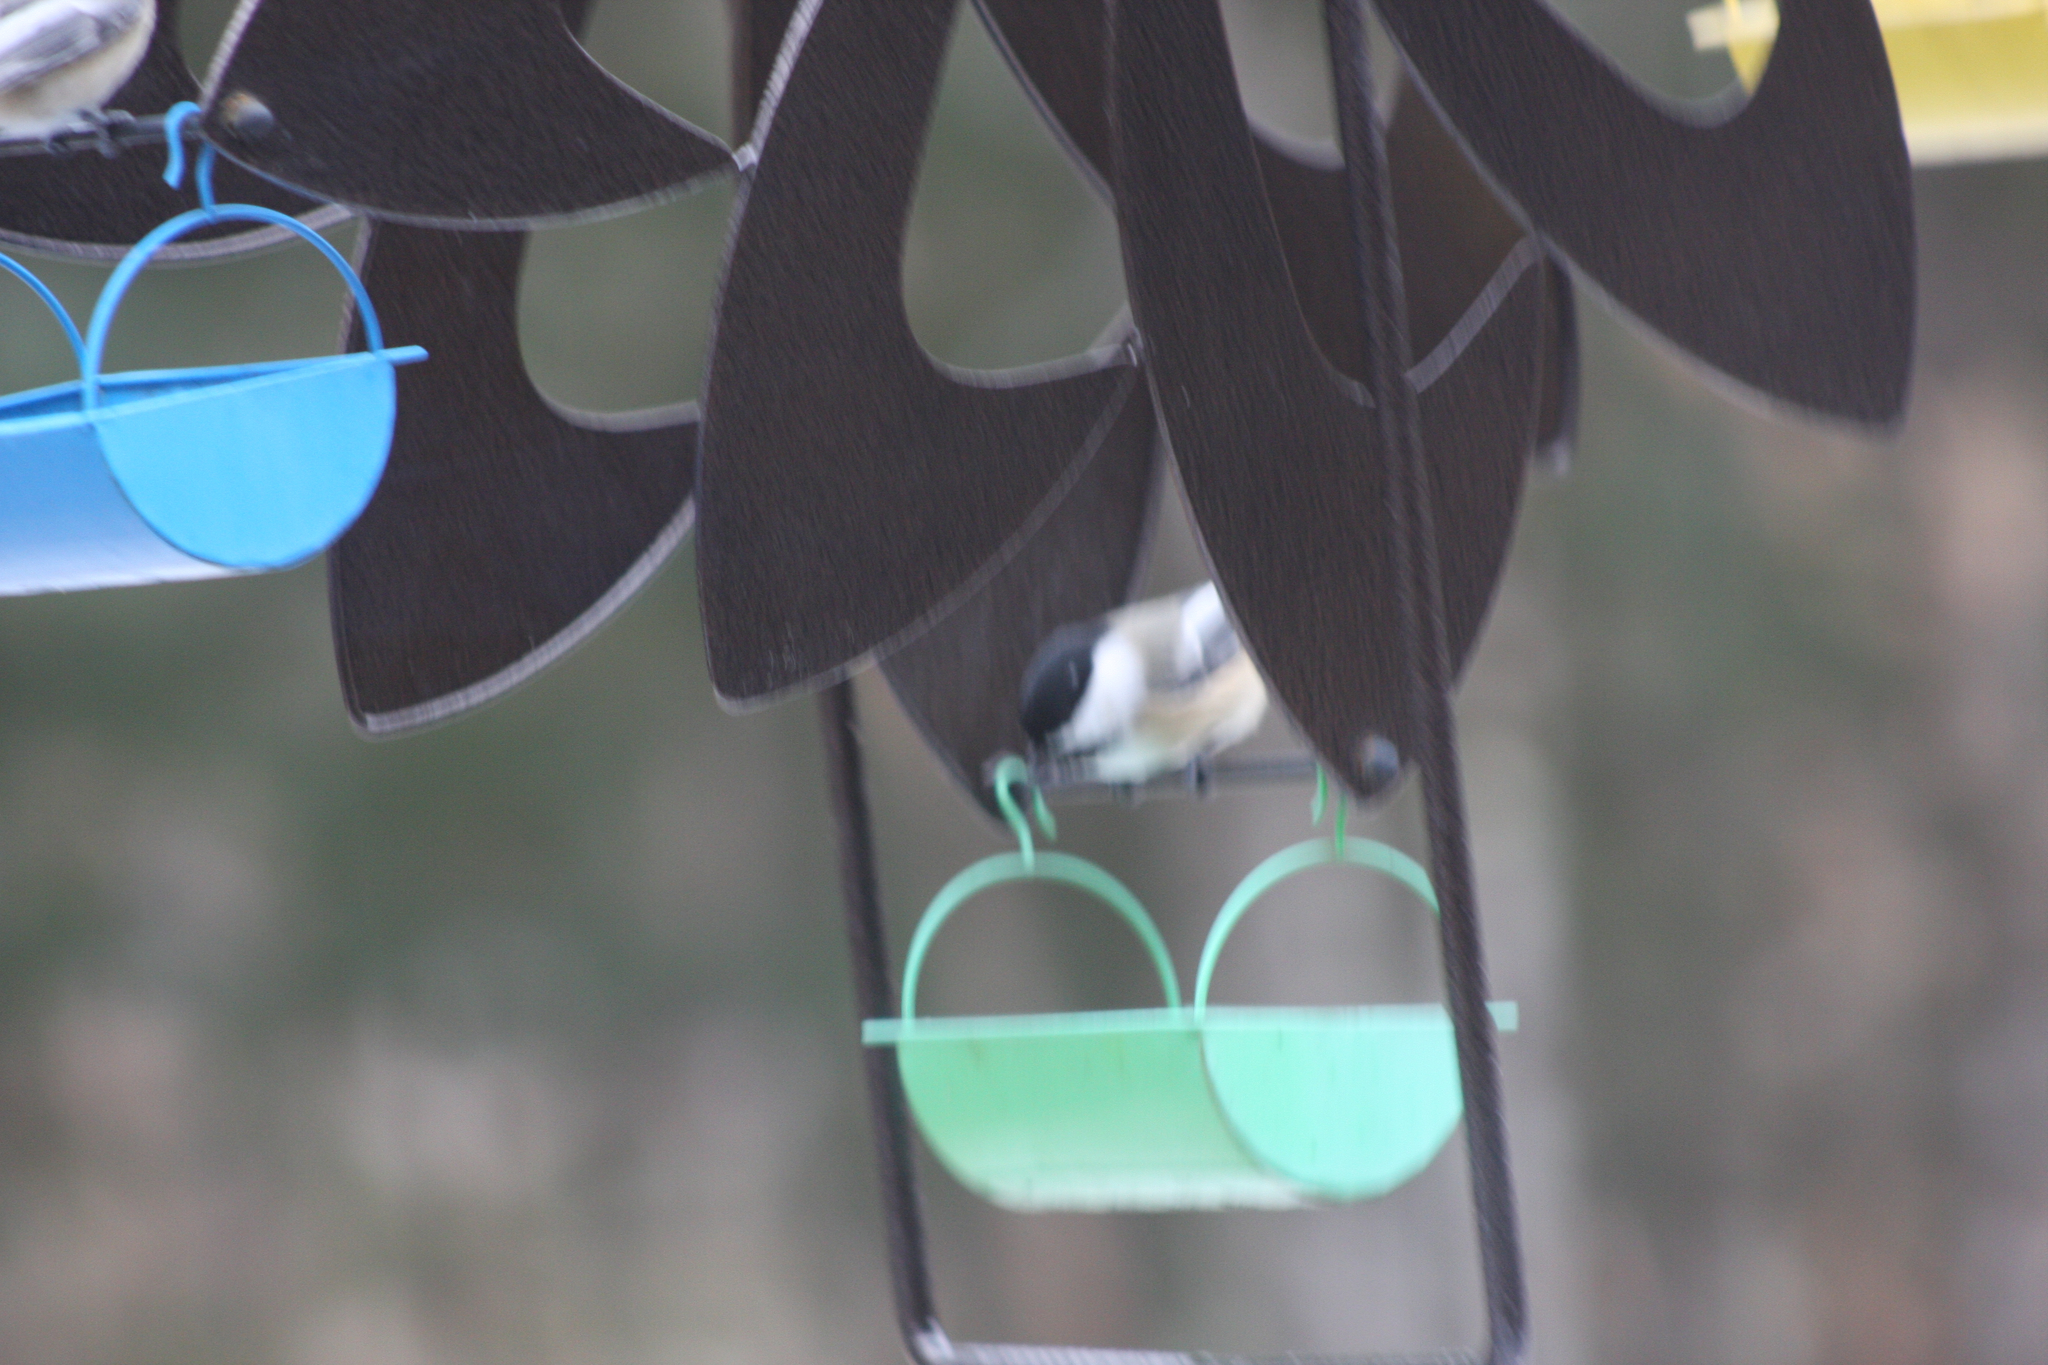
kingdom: Animalia
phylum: Chordata
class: Aves
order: Passeriformes
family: Paridae
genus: Poecile
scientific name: Poecile atricapillus
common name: Black-capped chickadee
